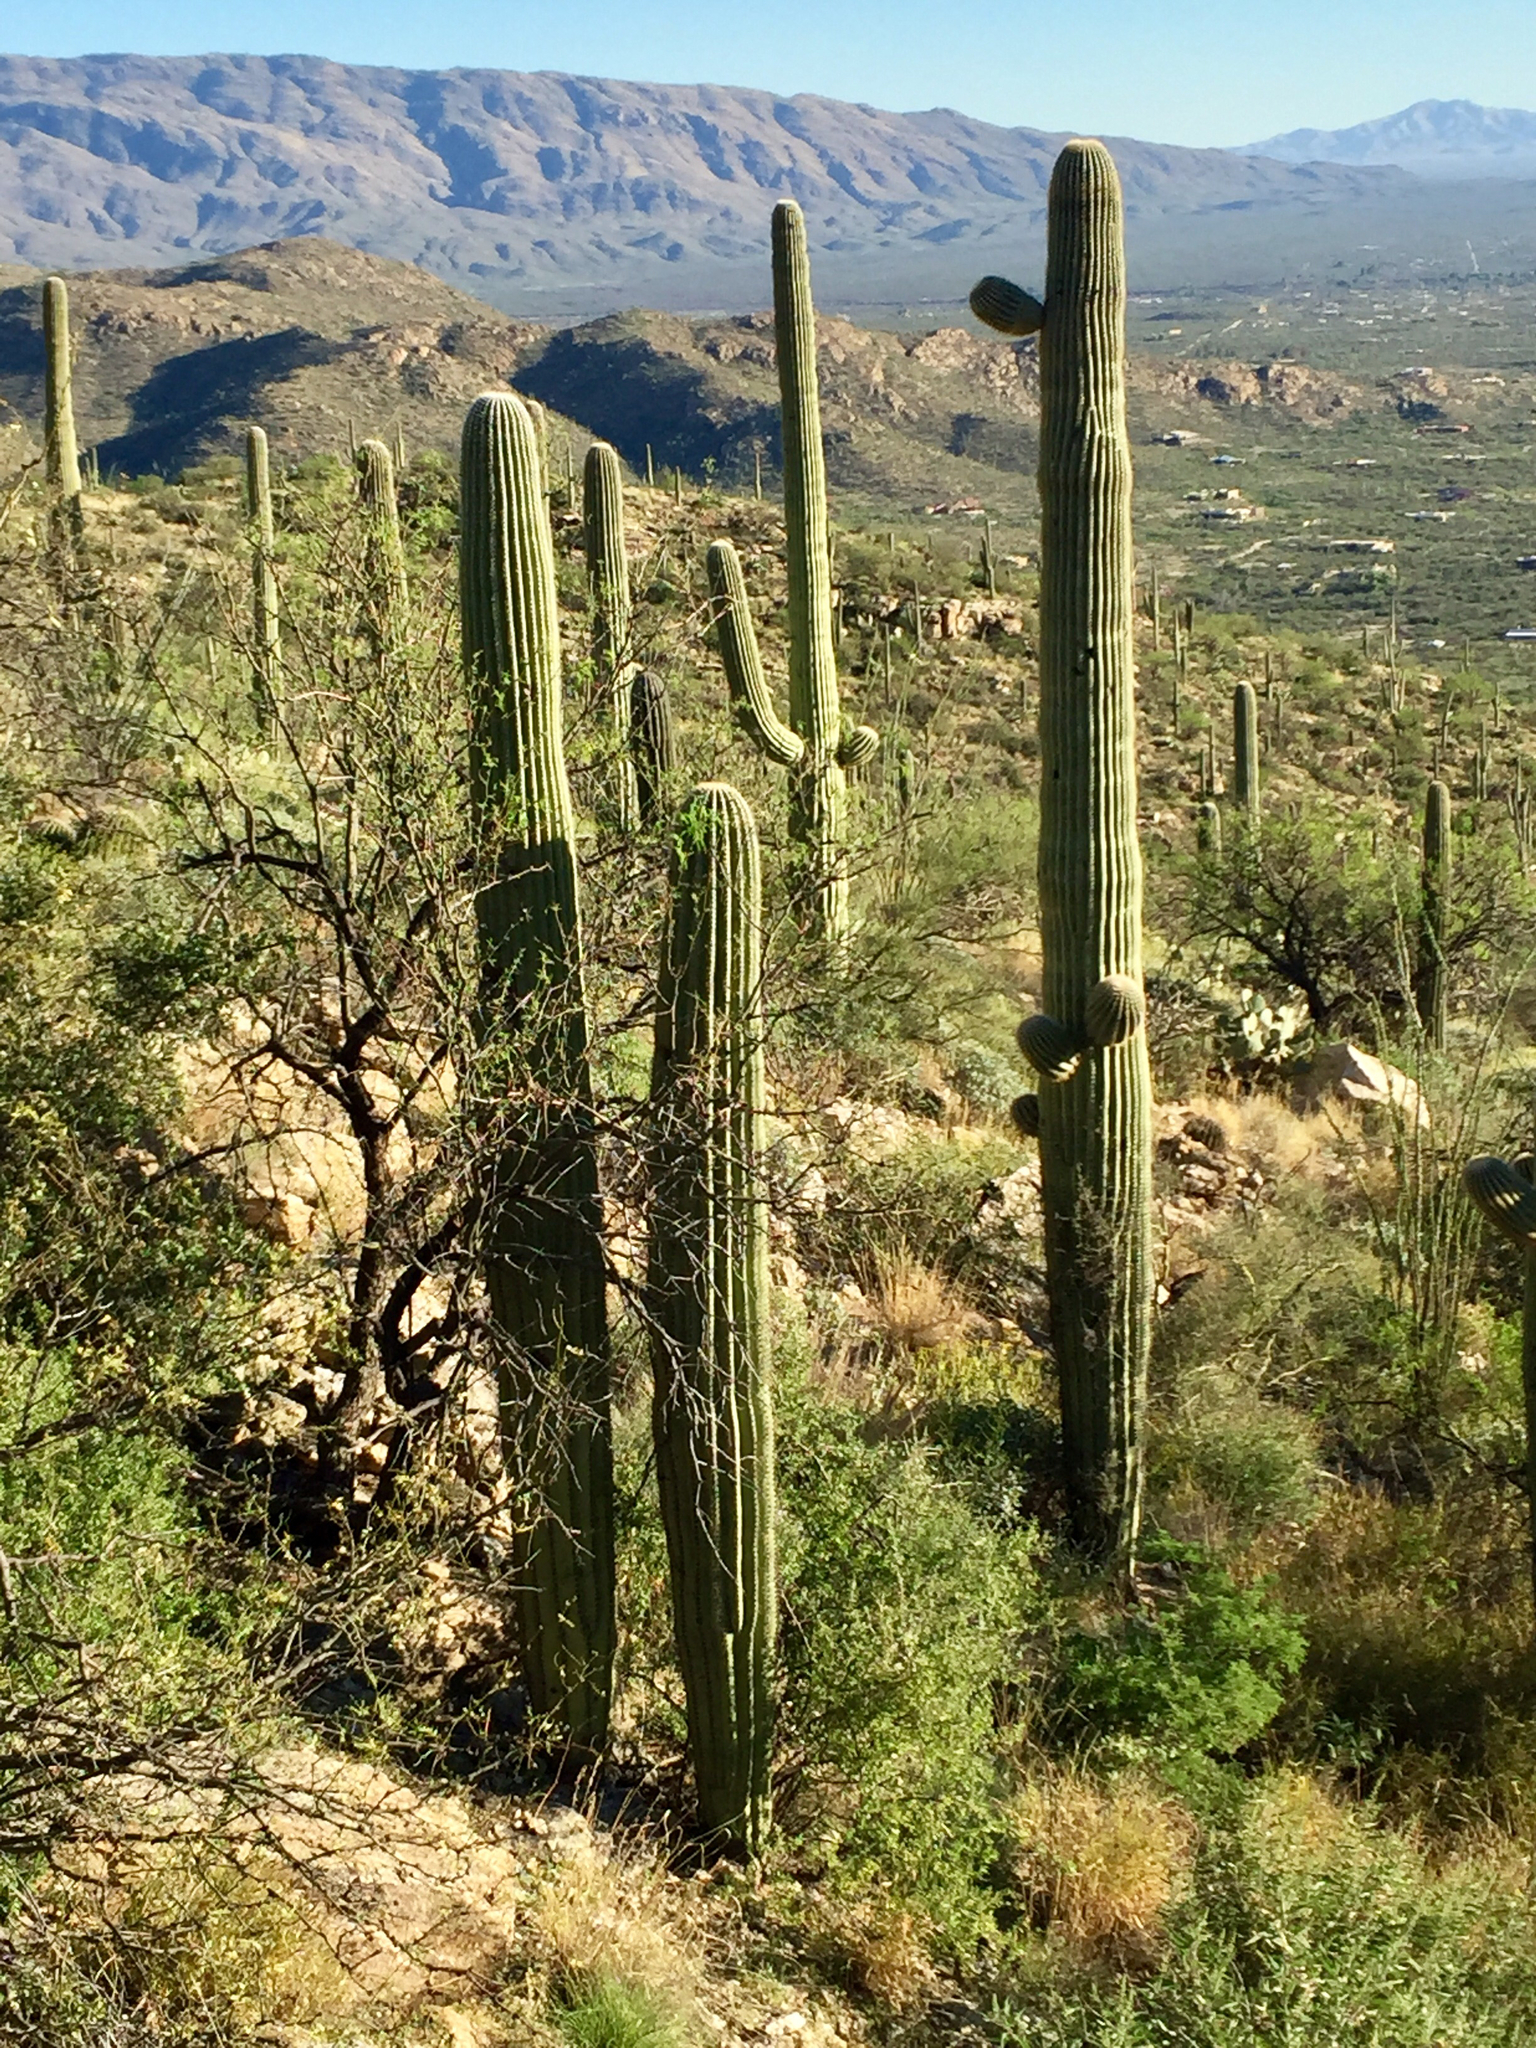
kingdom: Plantae
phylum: Tracheophyta
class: Magnoliopsida
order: Caryophyllales
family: Cactaceae
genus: Carnegiea
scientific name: Carnegiea gigantea
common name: Saguaro
